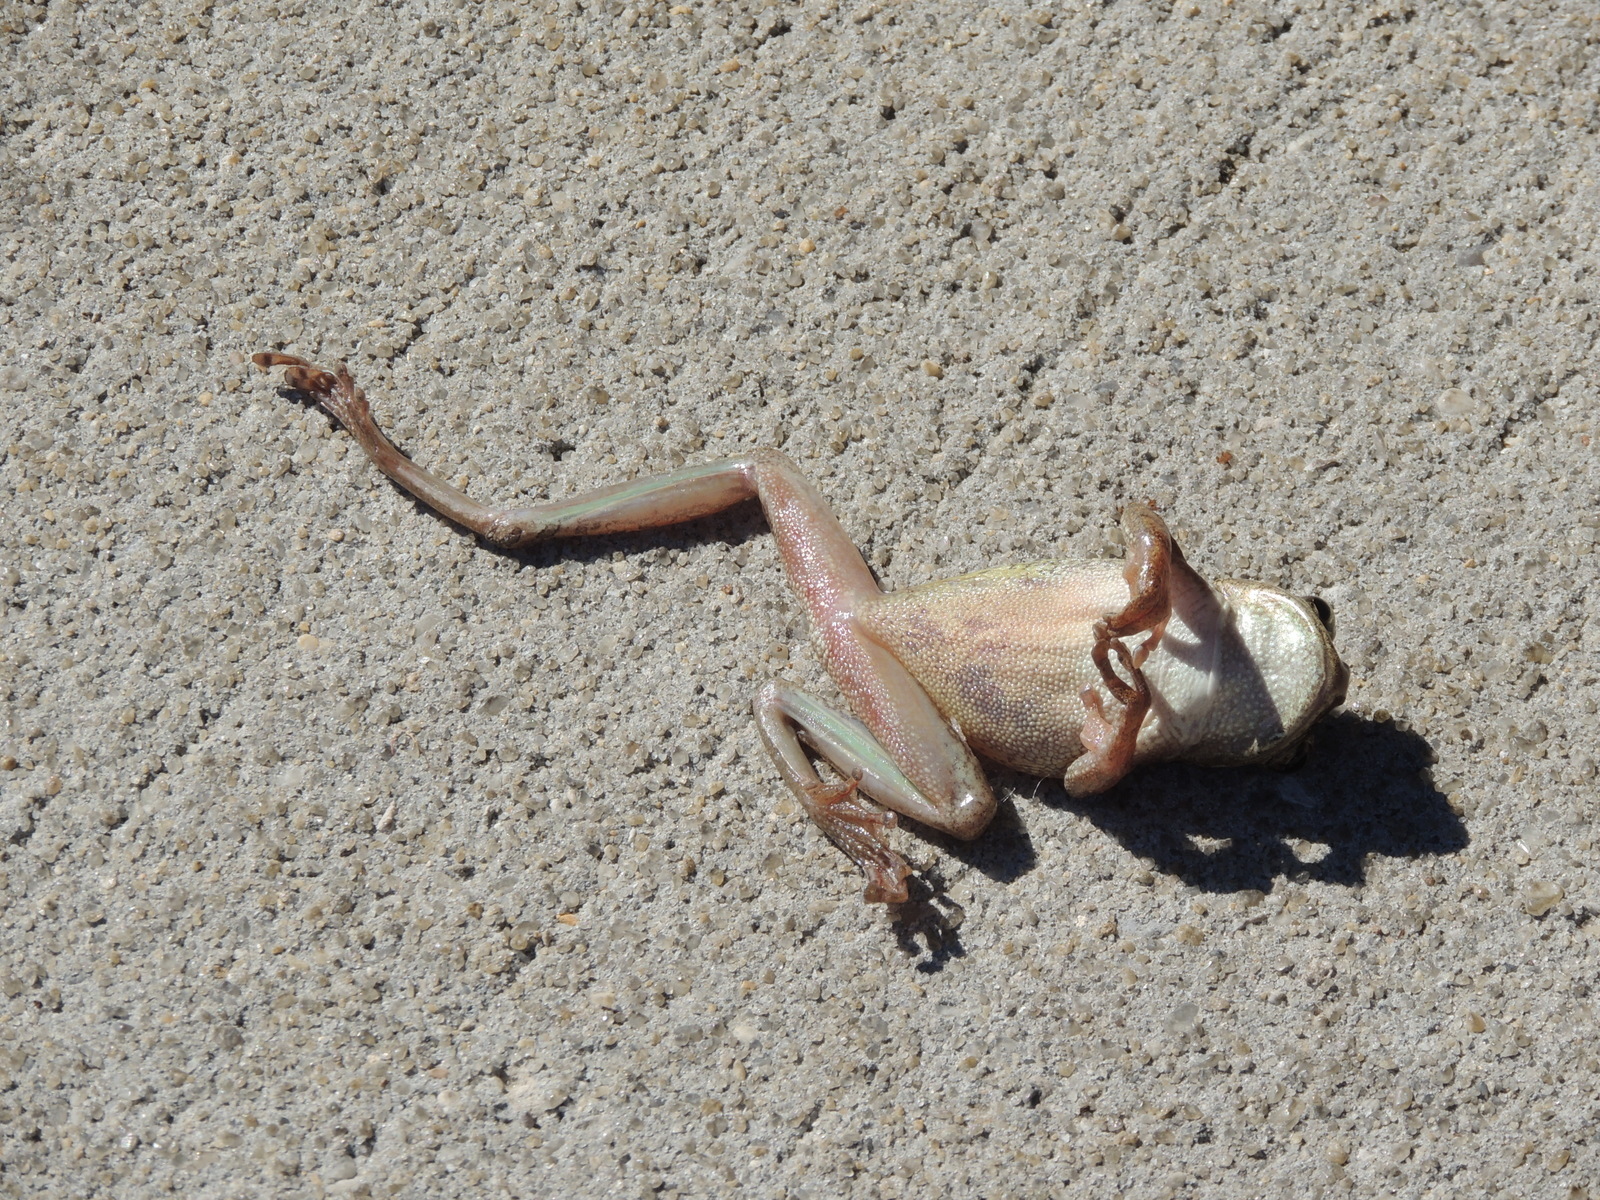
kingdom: Animalia
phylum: Chordata
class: Amphibia
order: Anura
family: Hylidae
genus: Osteopilus
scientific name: Osteopilus septentrionalis
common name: Cuban treefrog
